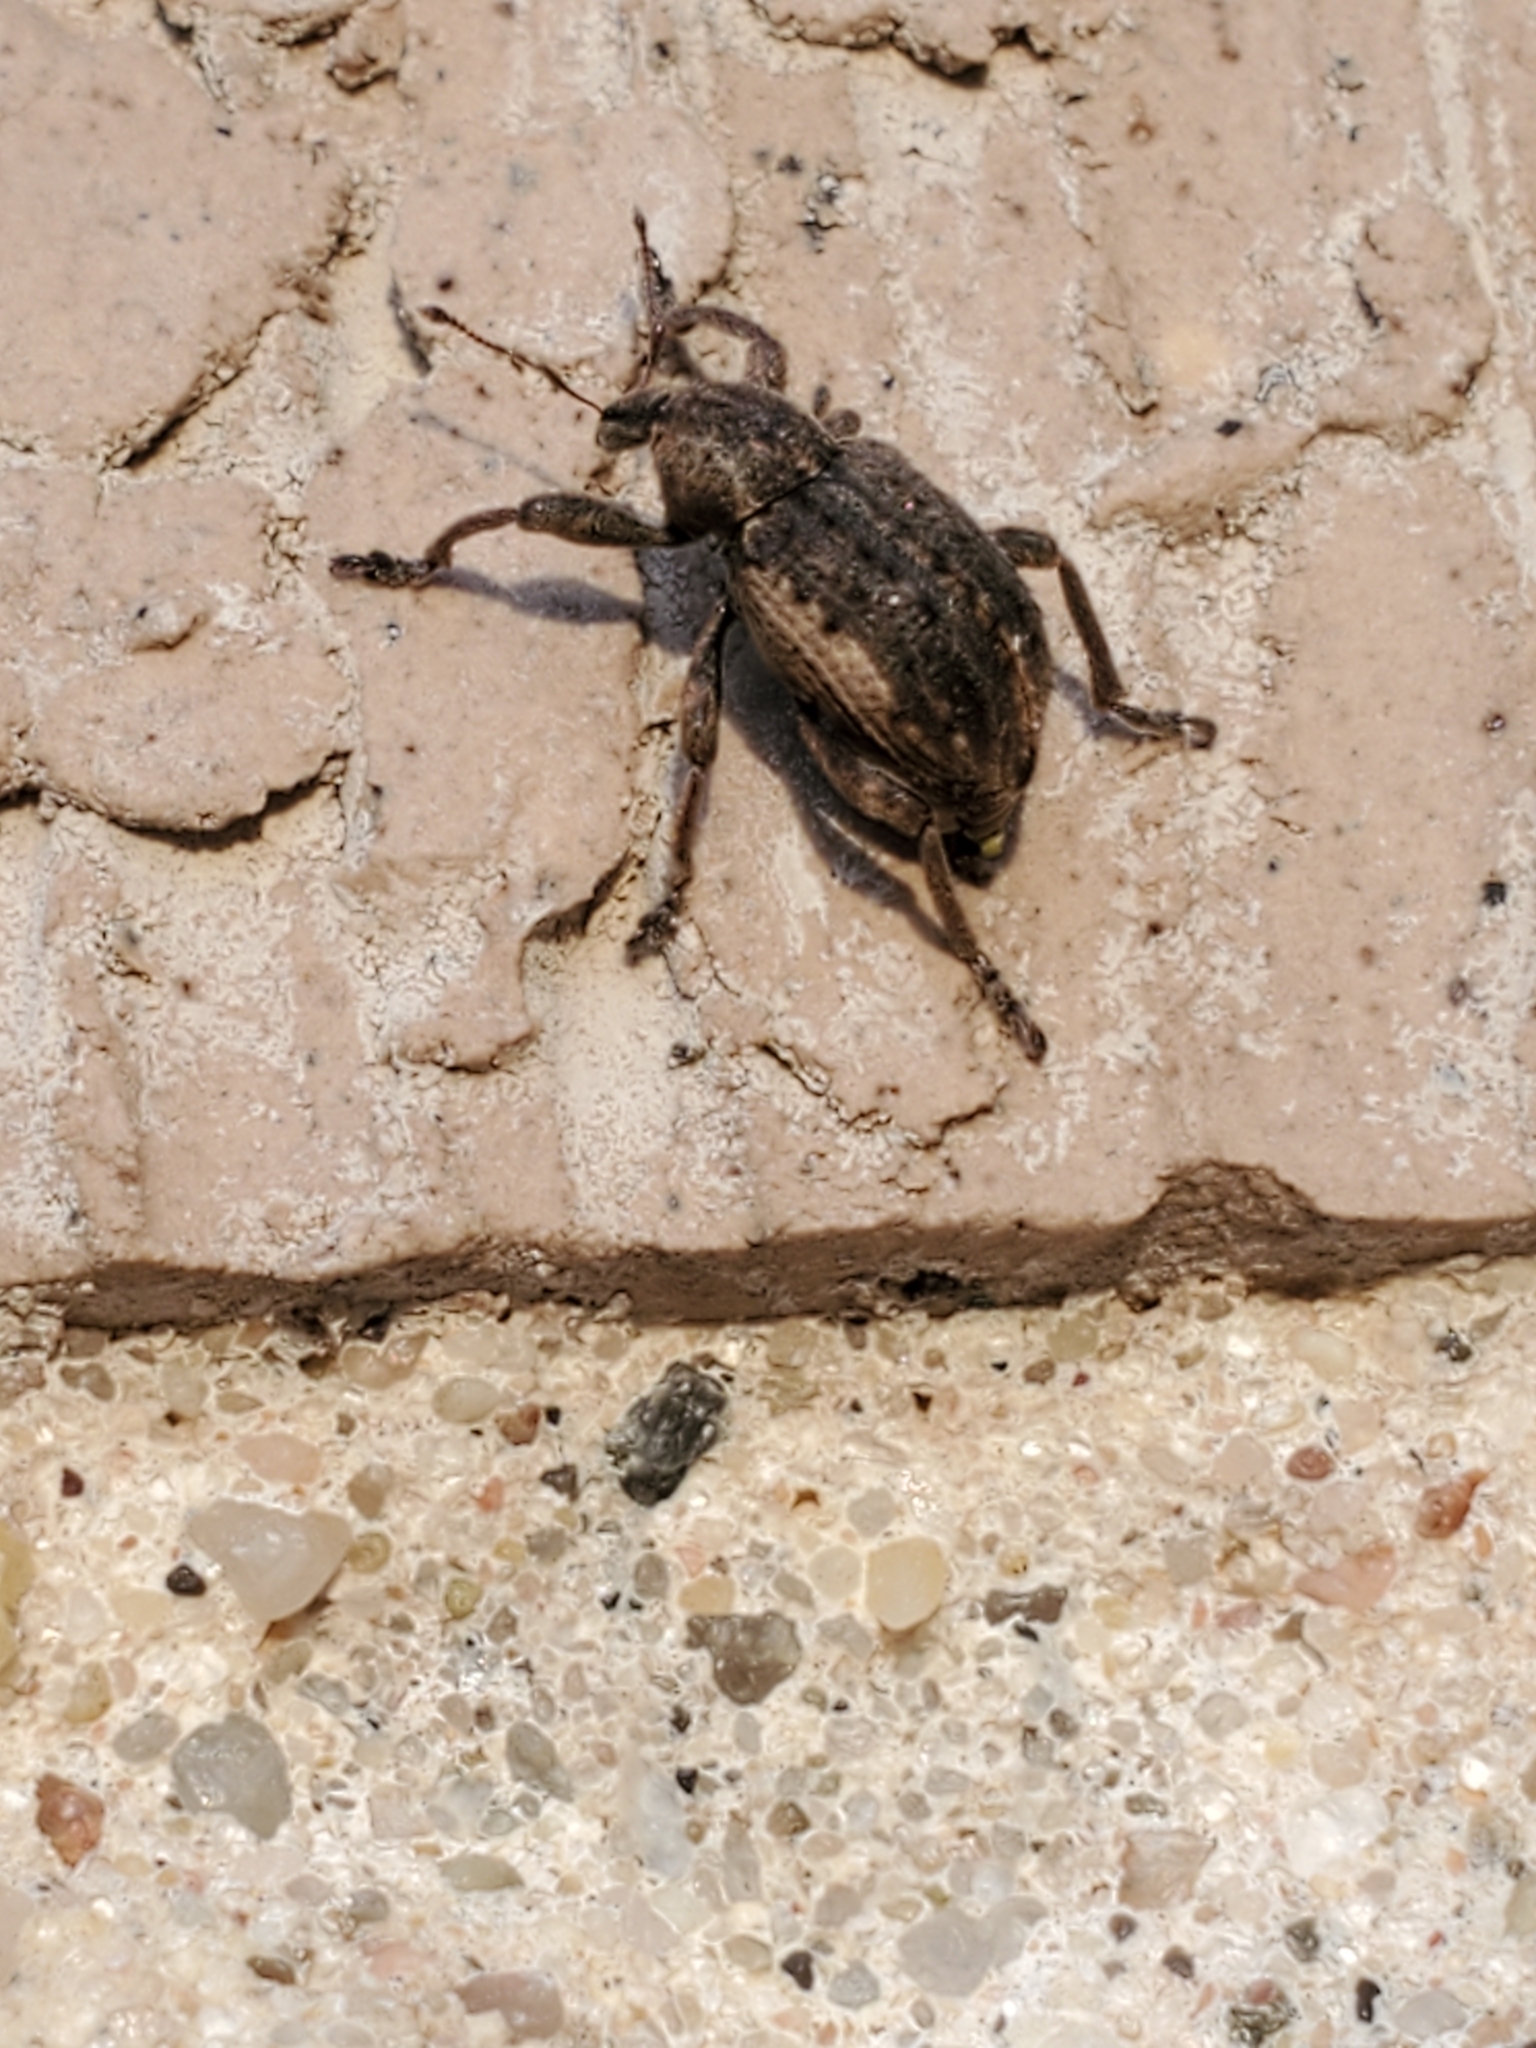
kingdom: Animalia
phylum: Arthropoda
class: Insecta
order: Coleoptera
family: Curculionidae
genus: Brachypera
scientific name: Brachypera zoilus
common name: Clover leaf weevil
